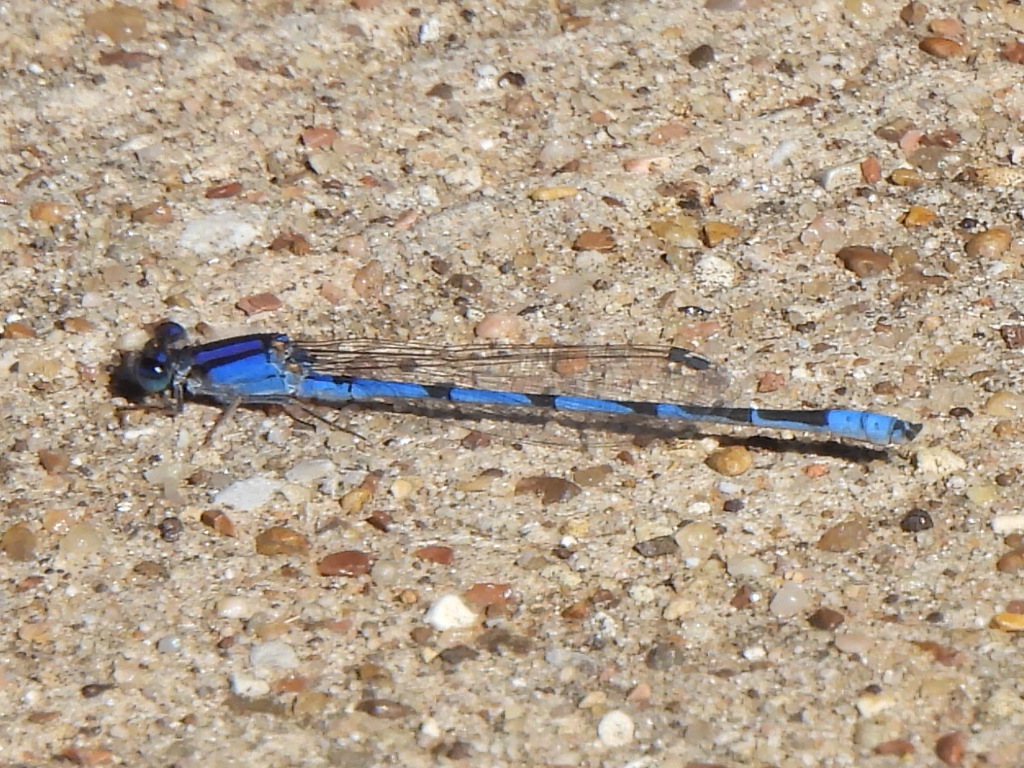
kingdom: Animalia
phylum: Arthropoda
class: Insecta
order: Odonata
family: Coenagrionidae
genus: Enallagma
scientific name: Enallagma civile
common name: Damselfly
